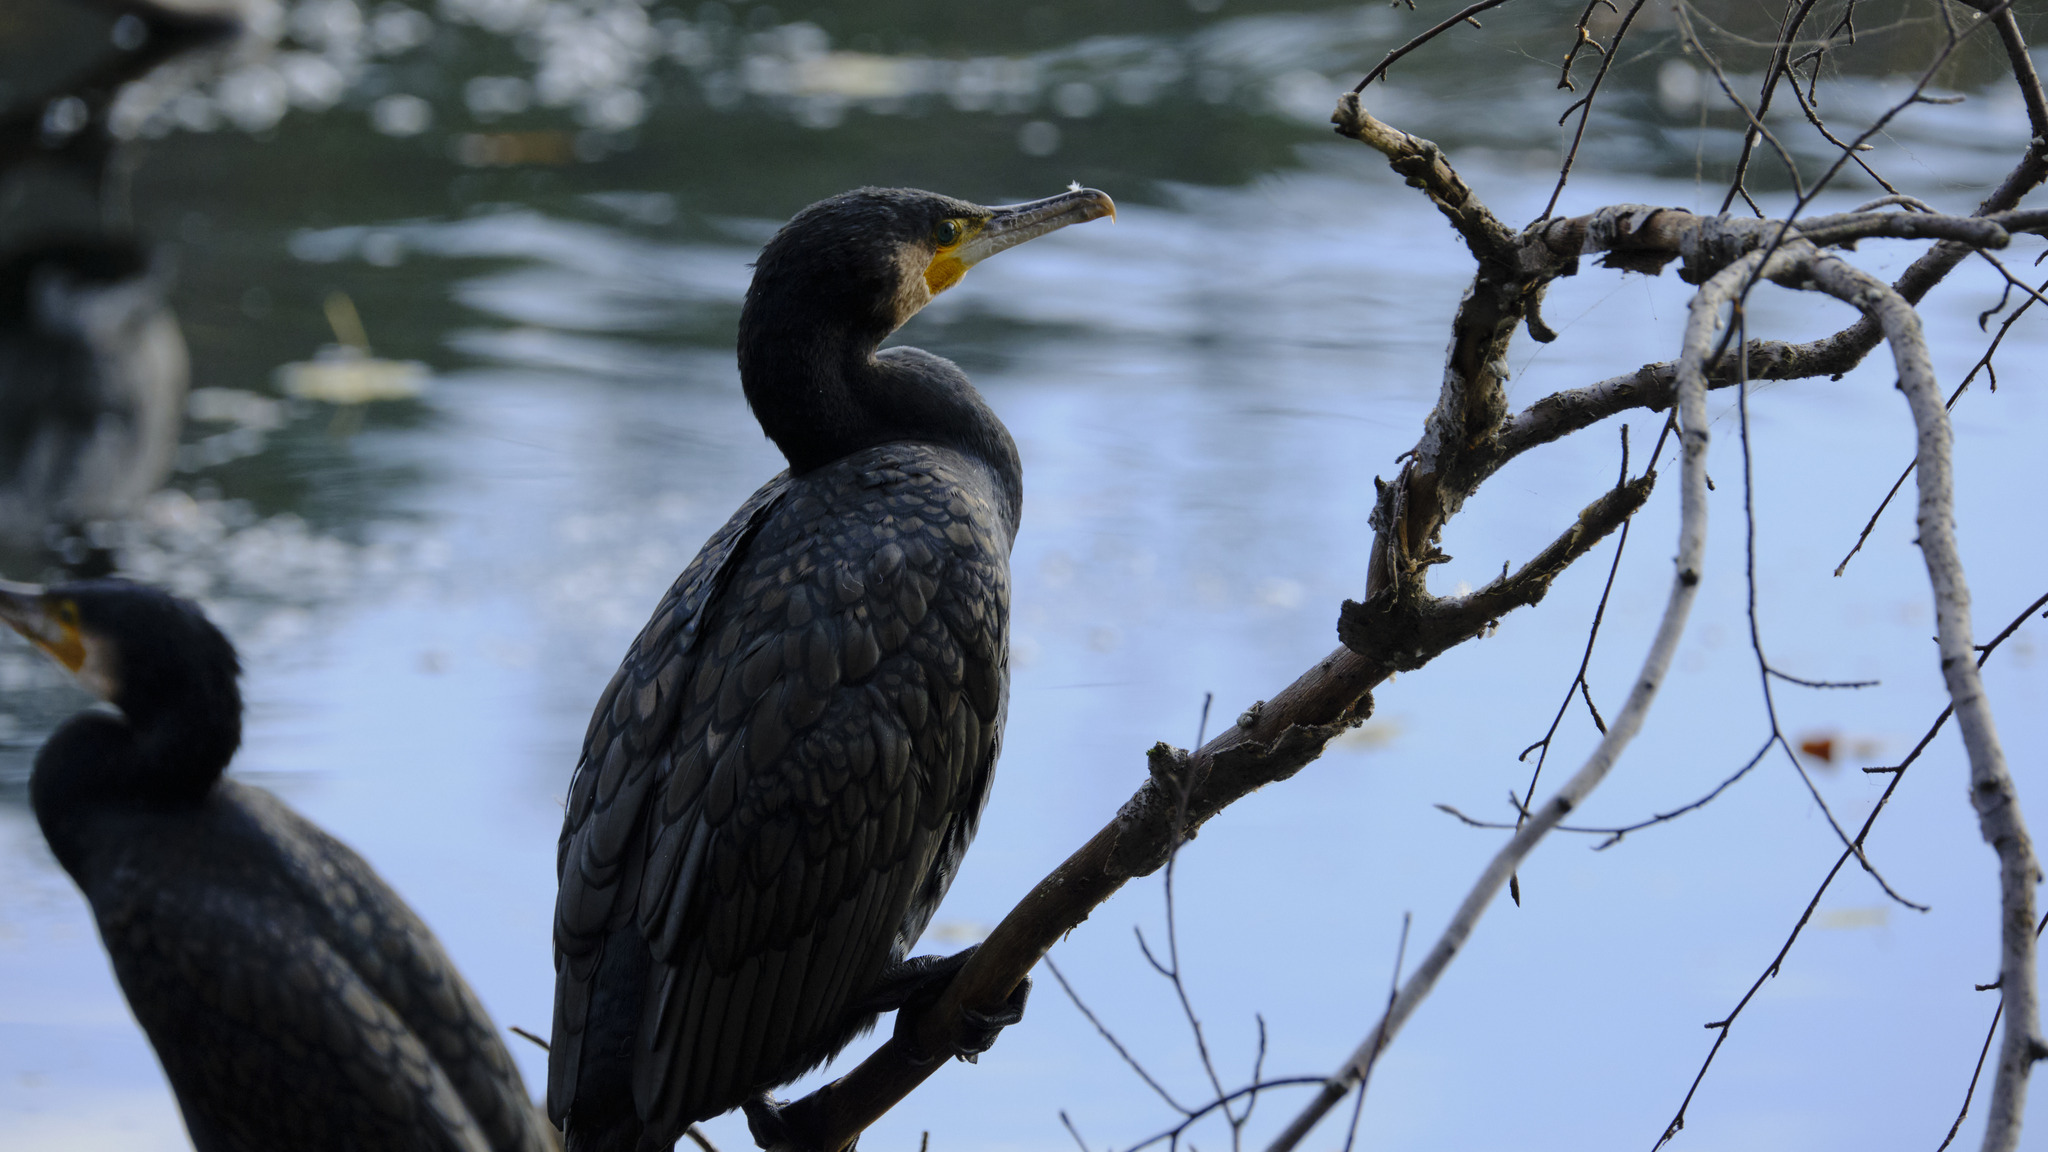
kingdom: Animalia
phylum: Chordata
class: Aves
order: Suliformes
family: Phalacrocoracidae
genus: Phalacrocorax
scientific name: Phalacrocorax carbo
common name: Great cormorant
